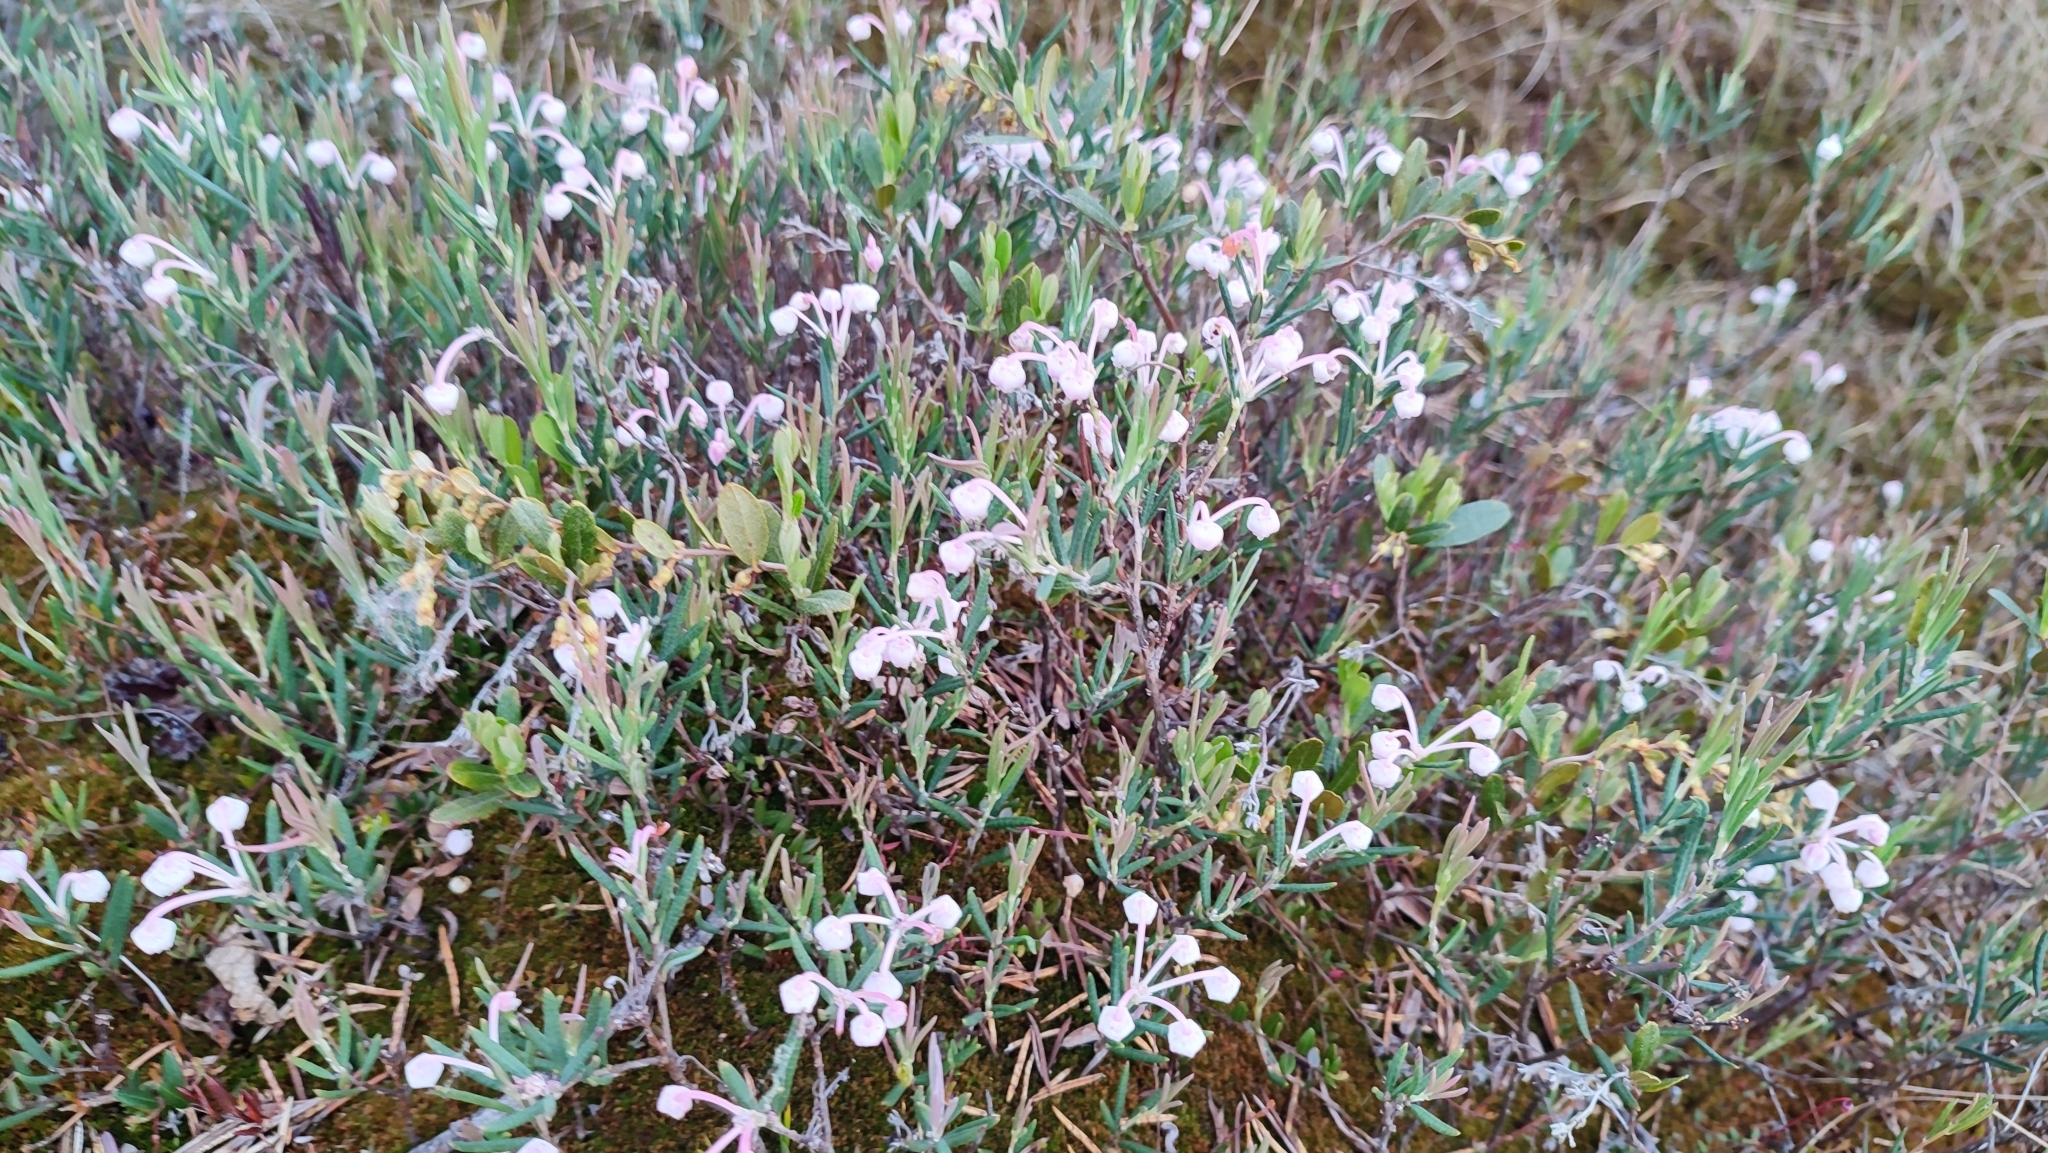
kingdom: Plantae
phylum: Tracheophyta
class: Magnoliopsida
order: Ericales
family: Ericaceae
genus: Andromeda
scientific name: Andromeda polifolia
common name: Bog-rosemary
